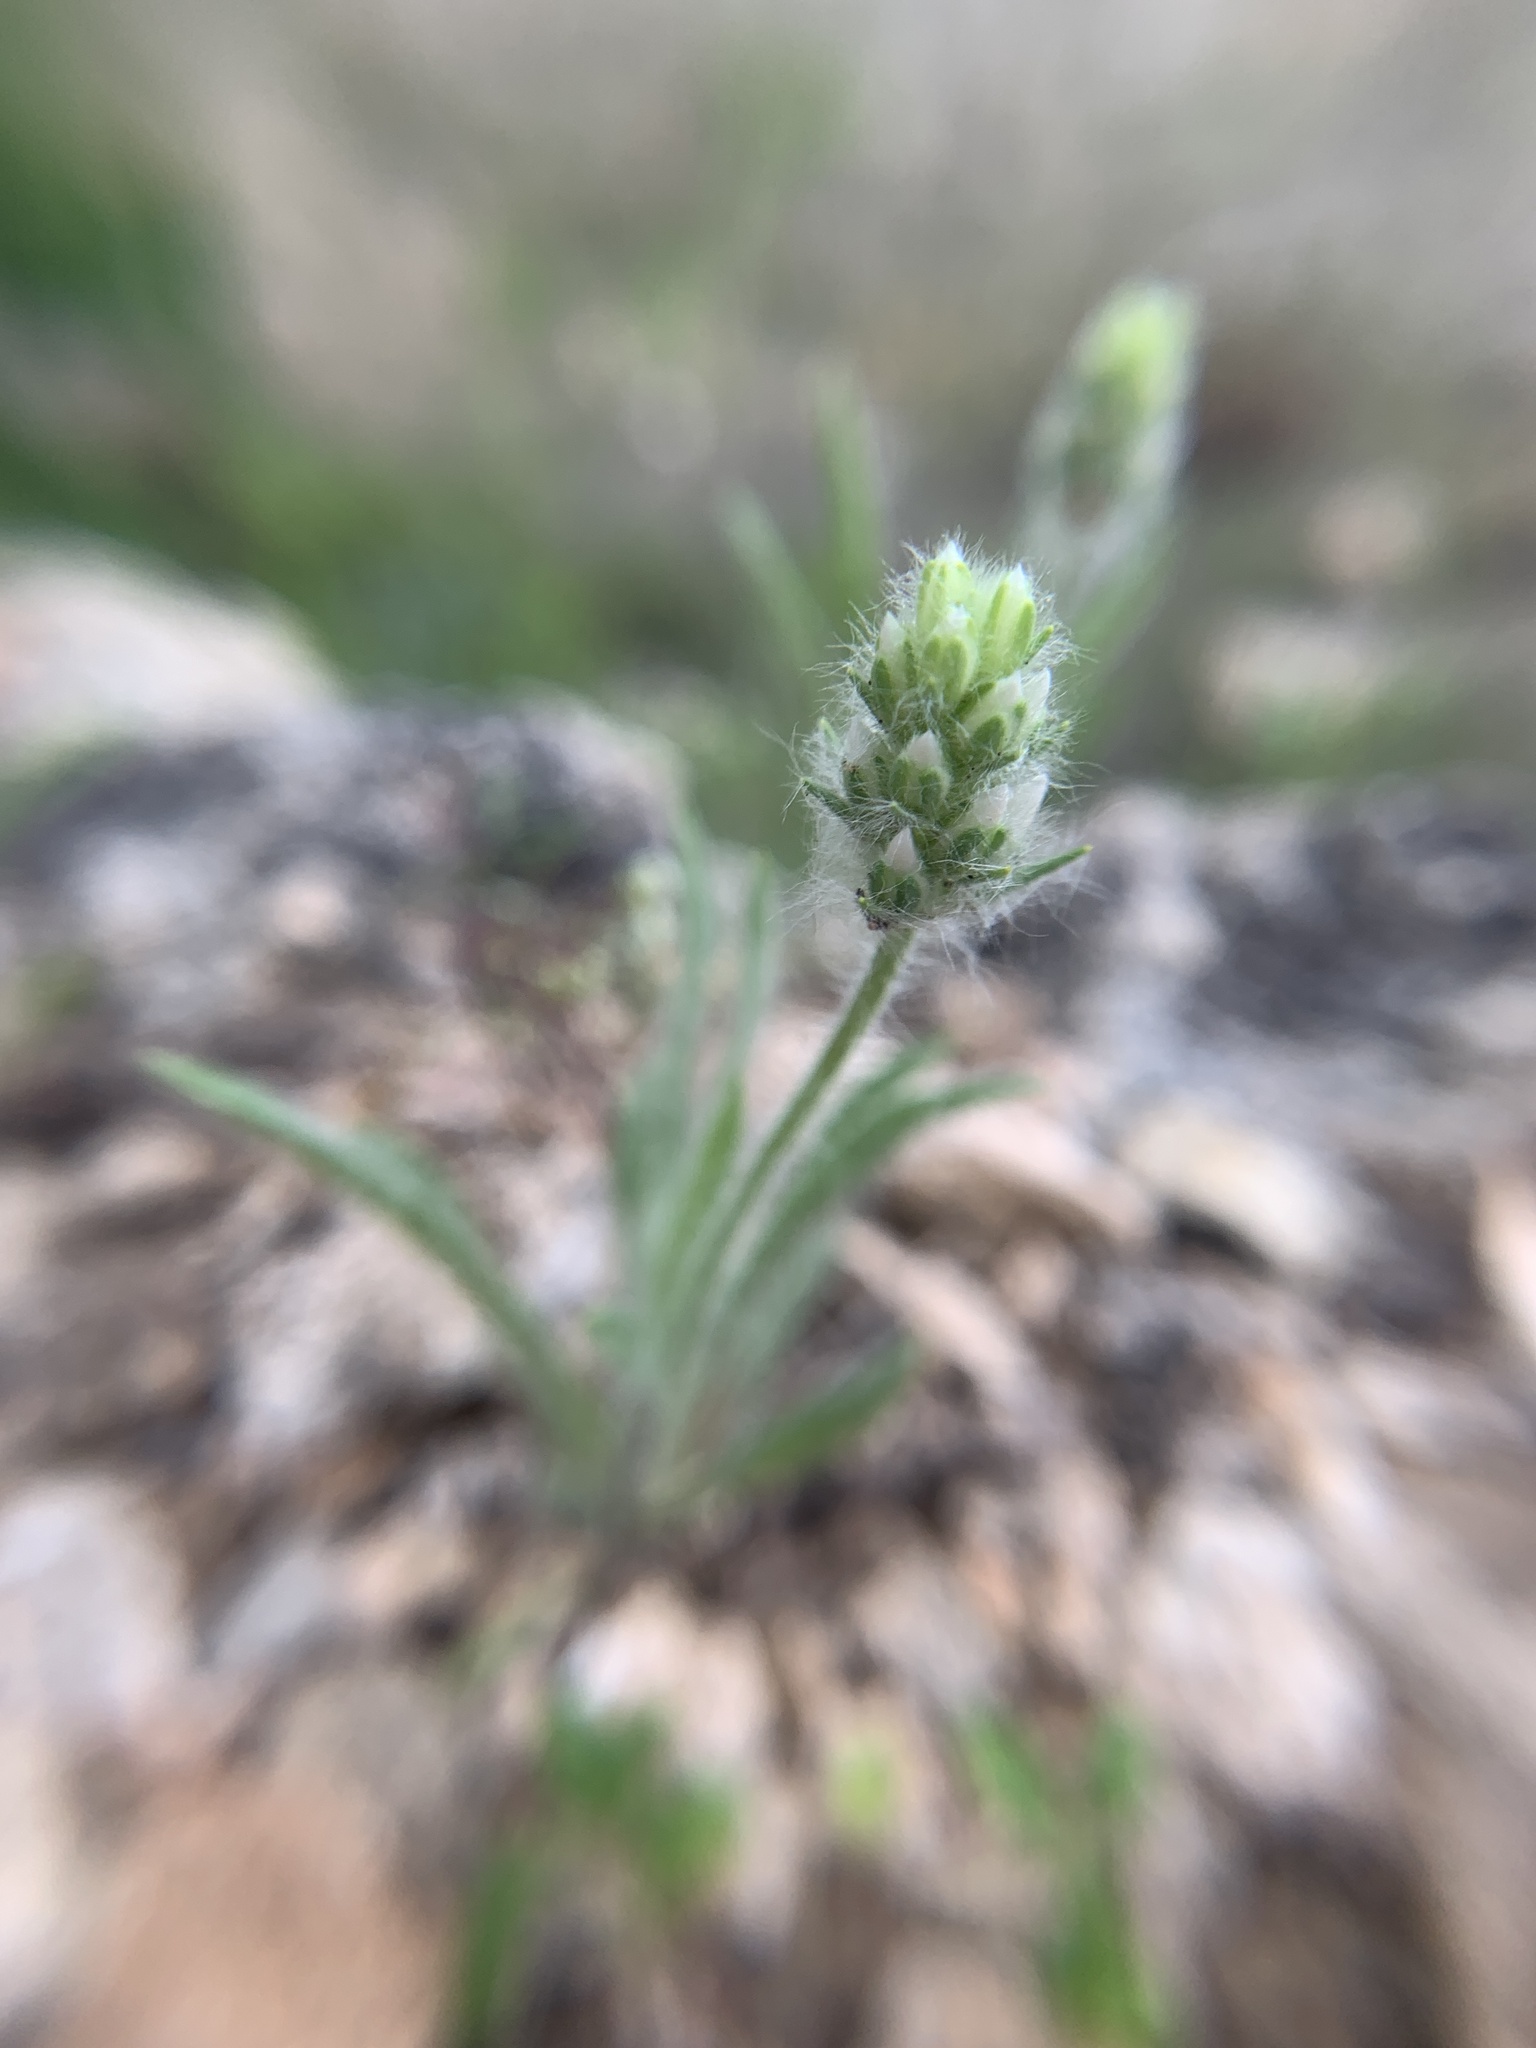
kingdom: Plantae
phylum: Tracheophyta
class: Magnoliopsida
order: Lamiales
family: Plantaginaceae
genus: Plantago
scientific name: Plantago helleri
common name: Heller's plantain
